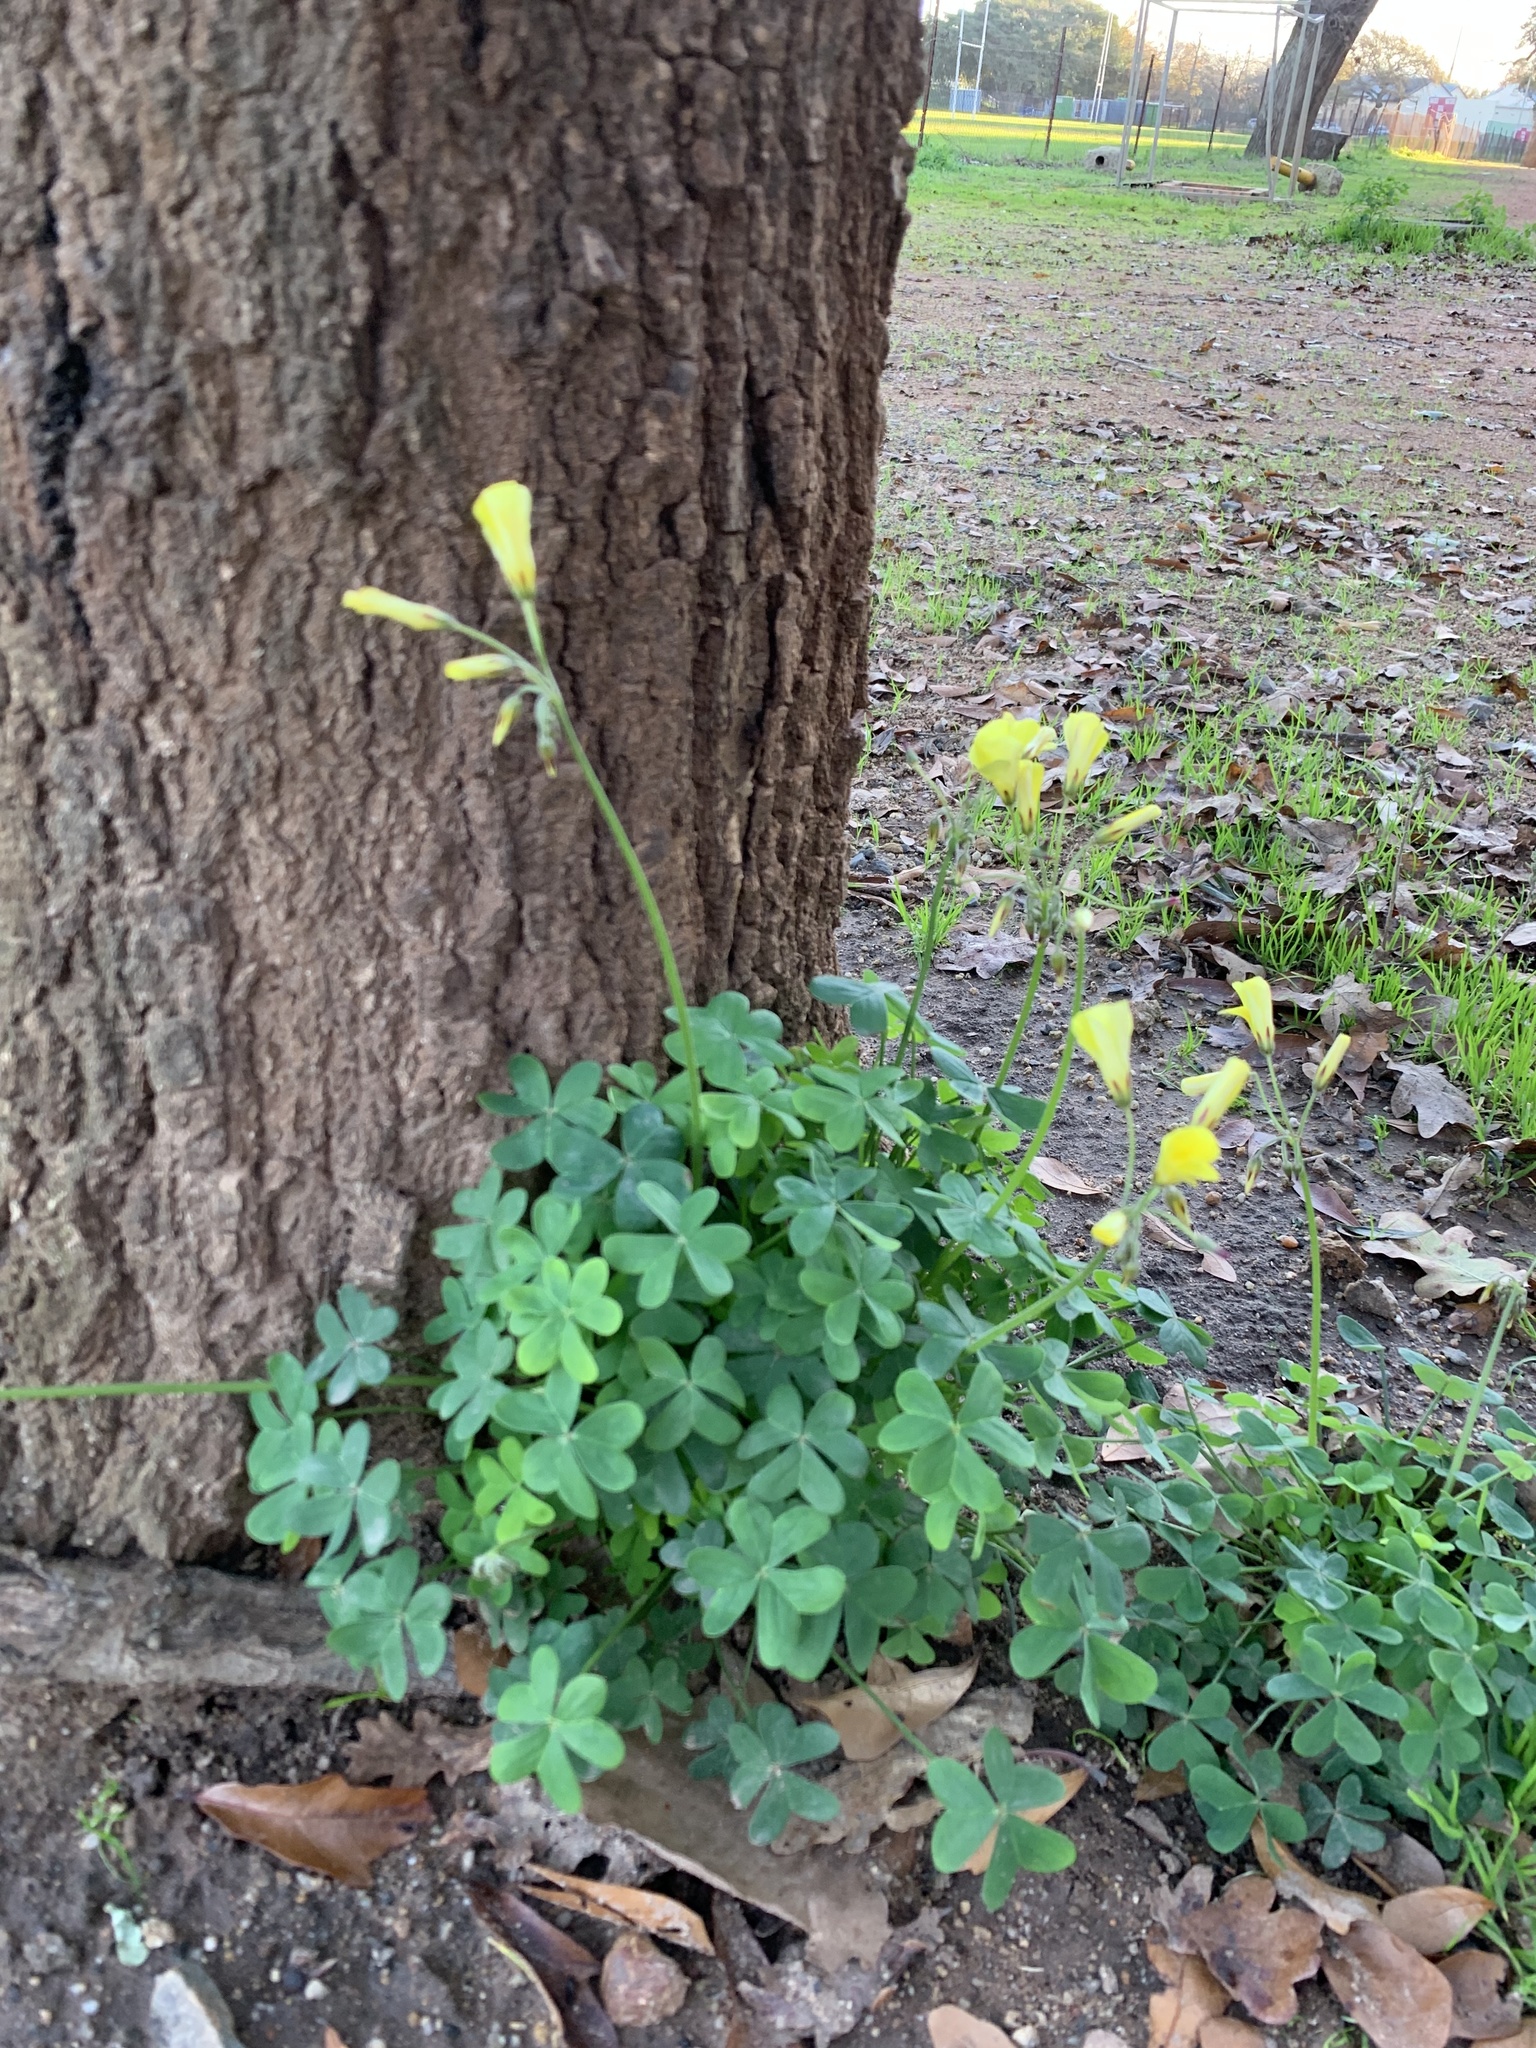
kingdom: Plantae
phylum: Tracheophyta
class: Magnoliopsida
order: Oxalidales
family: Oxalidaceae
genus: Oxalis
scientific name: Oxalis pes-caprae
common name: Bermuda-buttercup
